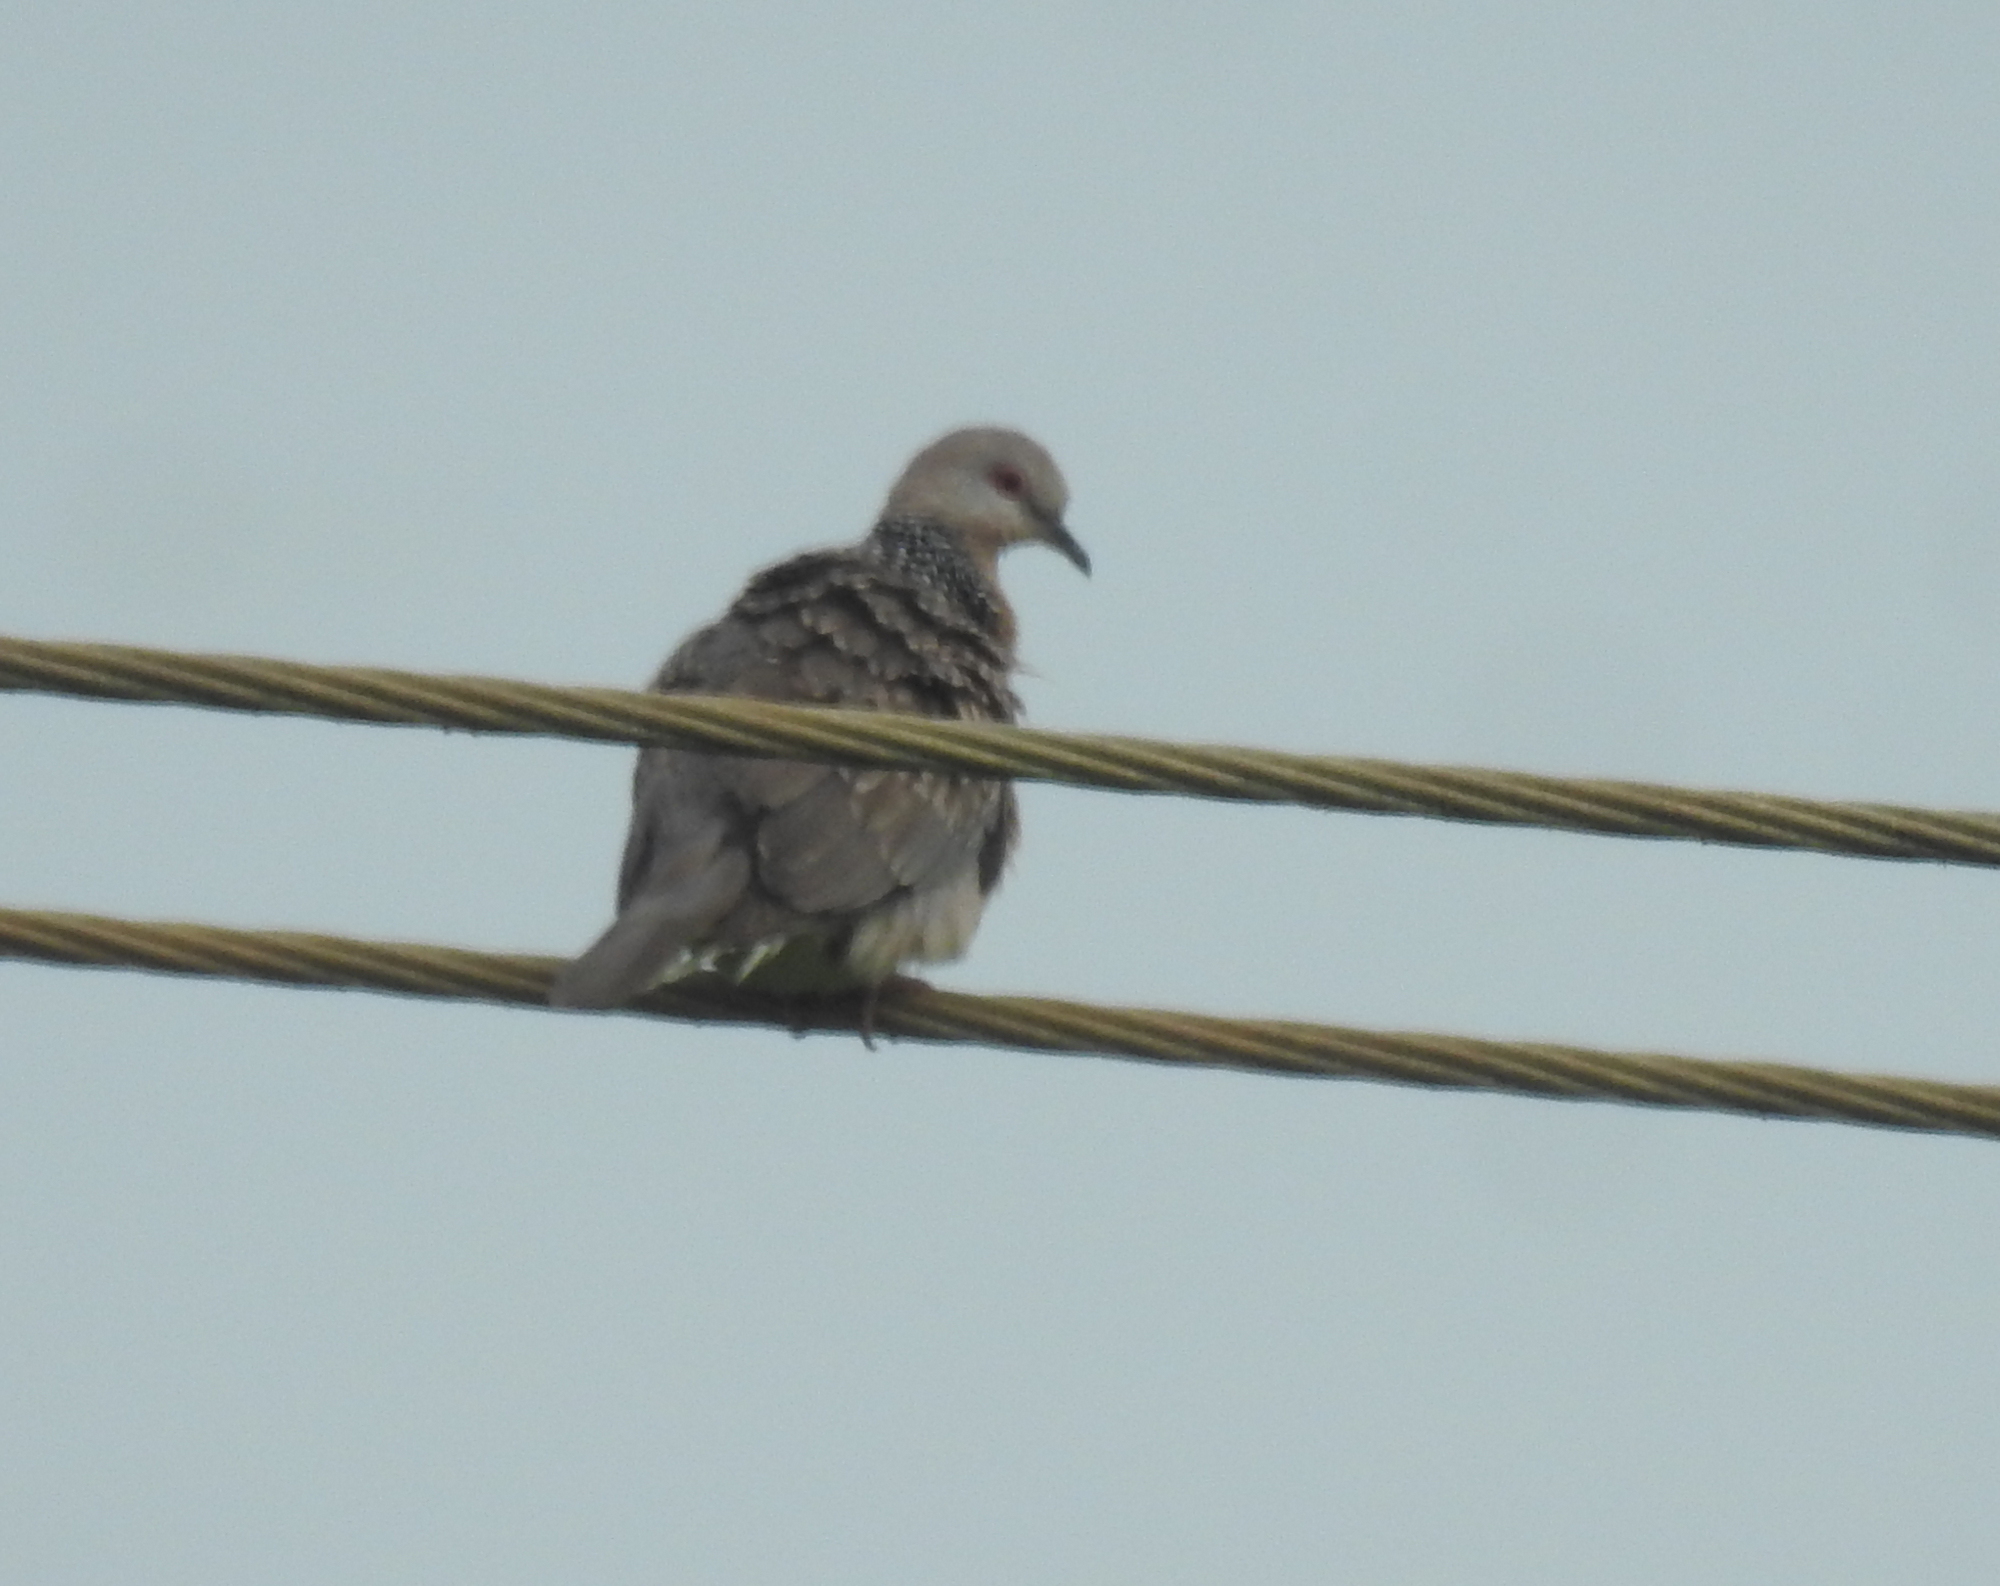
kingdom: Animalia
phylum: Chordata
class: Aves
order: Columbiformes
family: Columbidae
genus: Spilopelia
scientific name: Spilopelia chinensis
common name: Spotted dove
